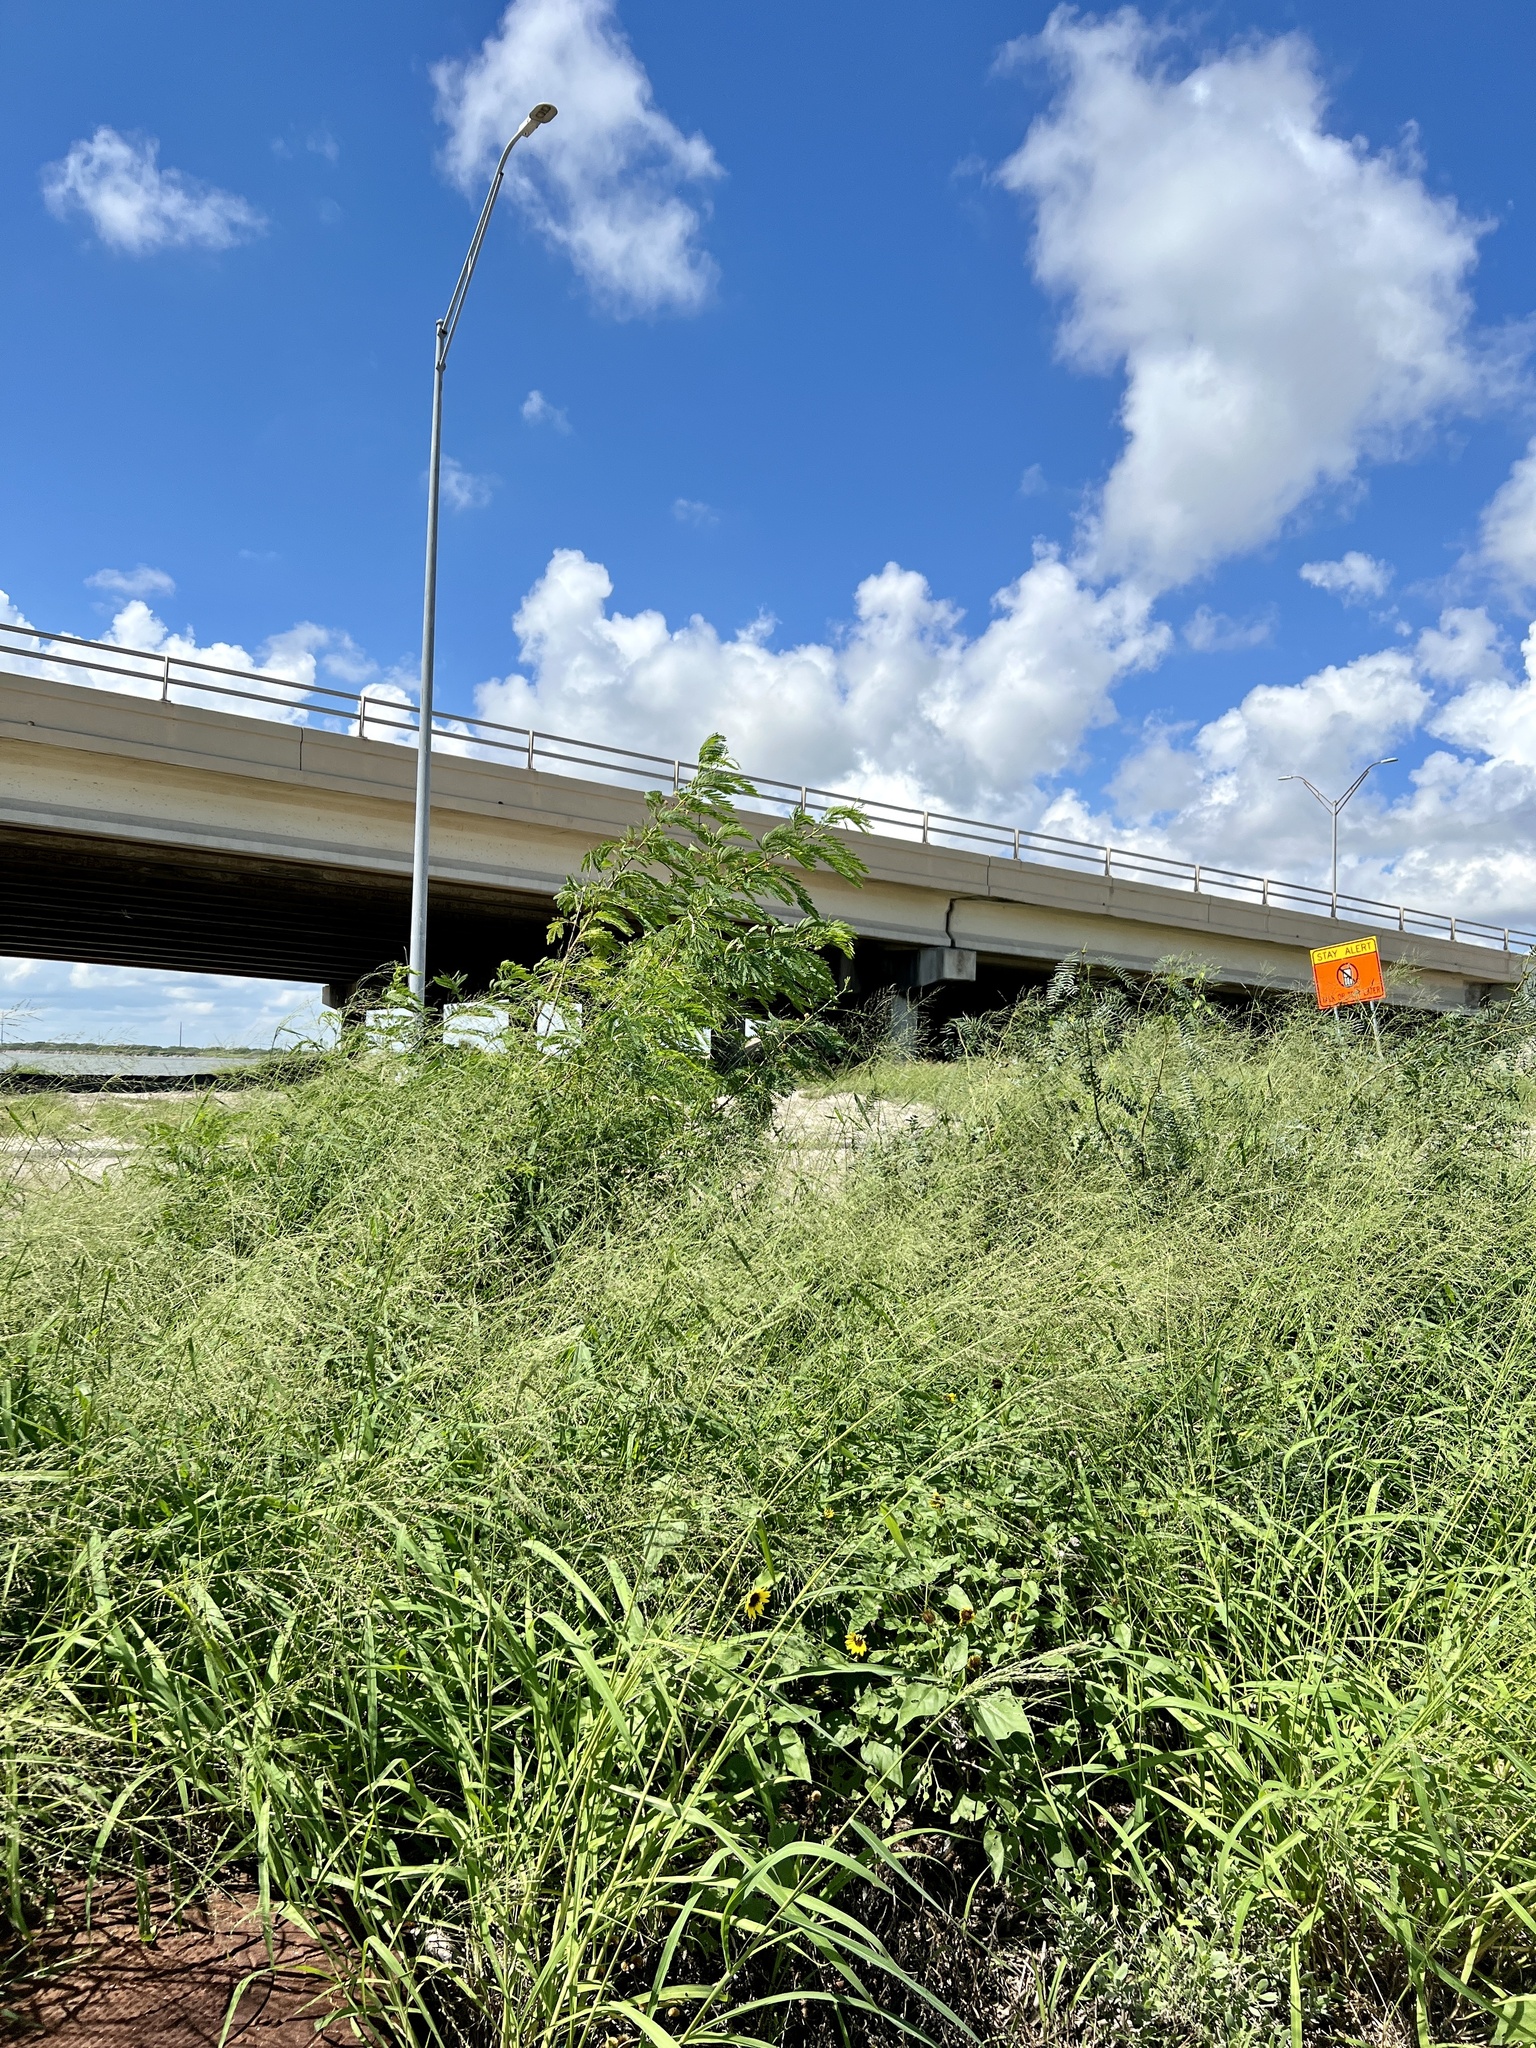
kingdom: Plantae
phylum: Tracheophyta
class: Magnoliopsida
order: Fabales
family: Fabaceae
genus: Leucaena
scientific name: Leucaena leucocephala
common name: White leadtree
